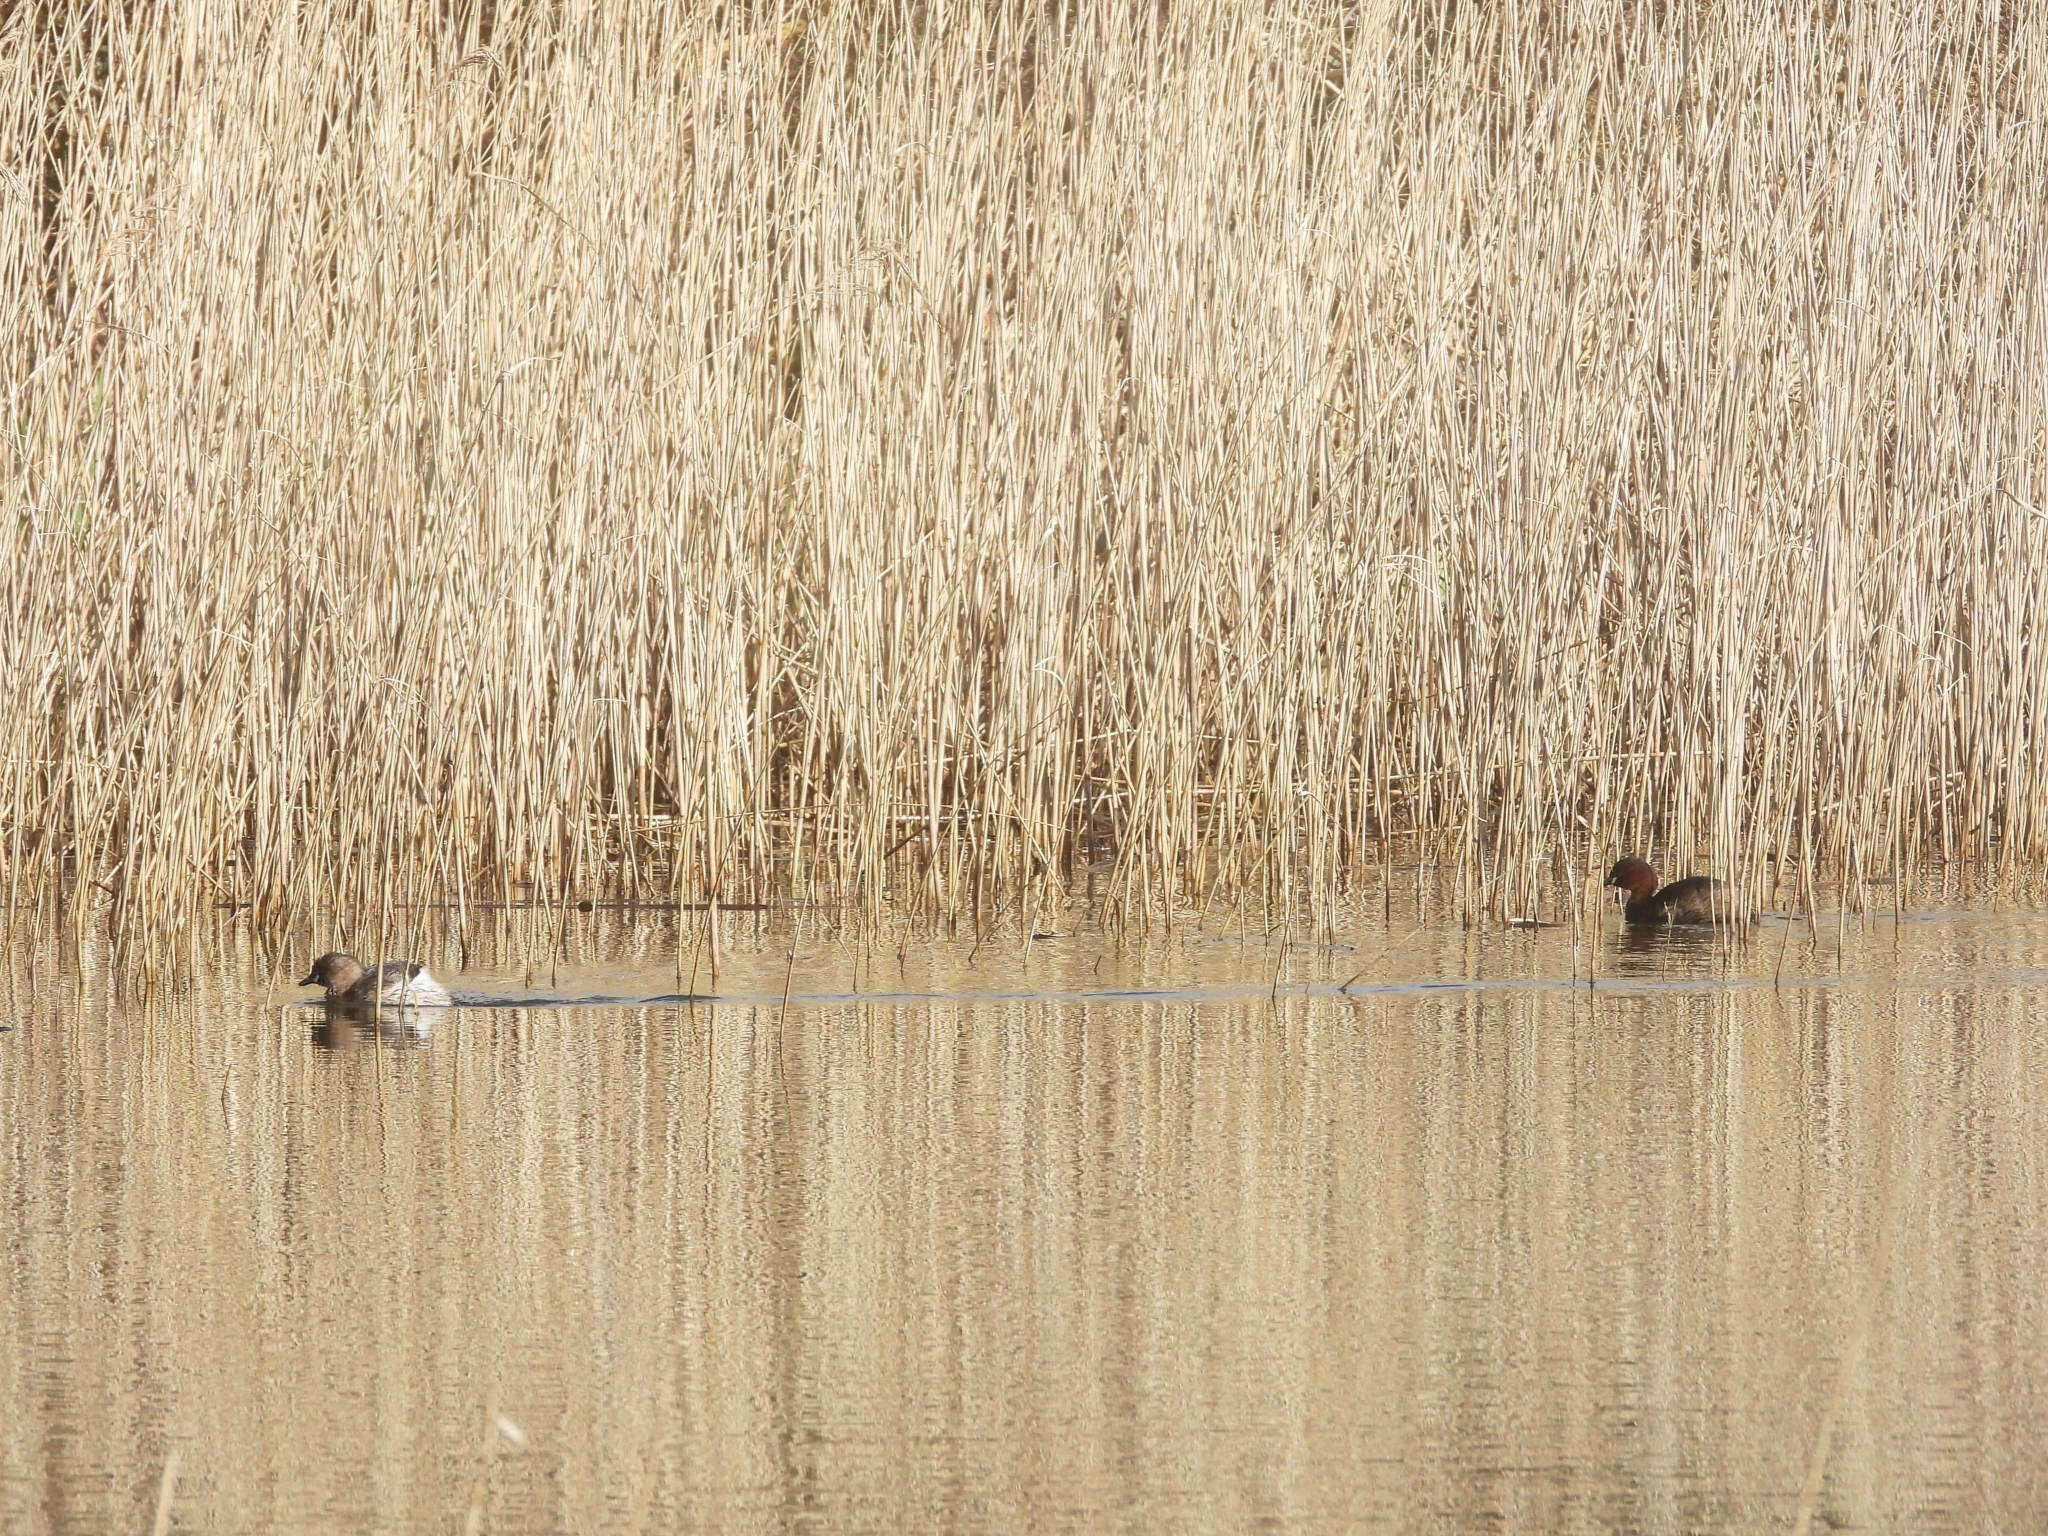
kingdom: Animalia
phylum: Chordata
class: Aves
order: Podicipediformes
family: Podicipedidae
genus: Tachybaptus
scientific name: Tachybaptus ruficollis
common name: Little grebe
